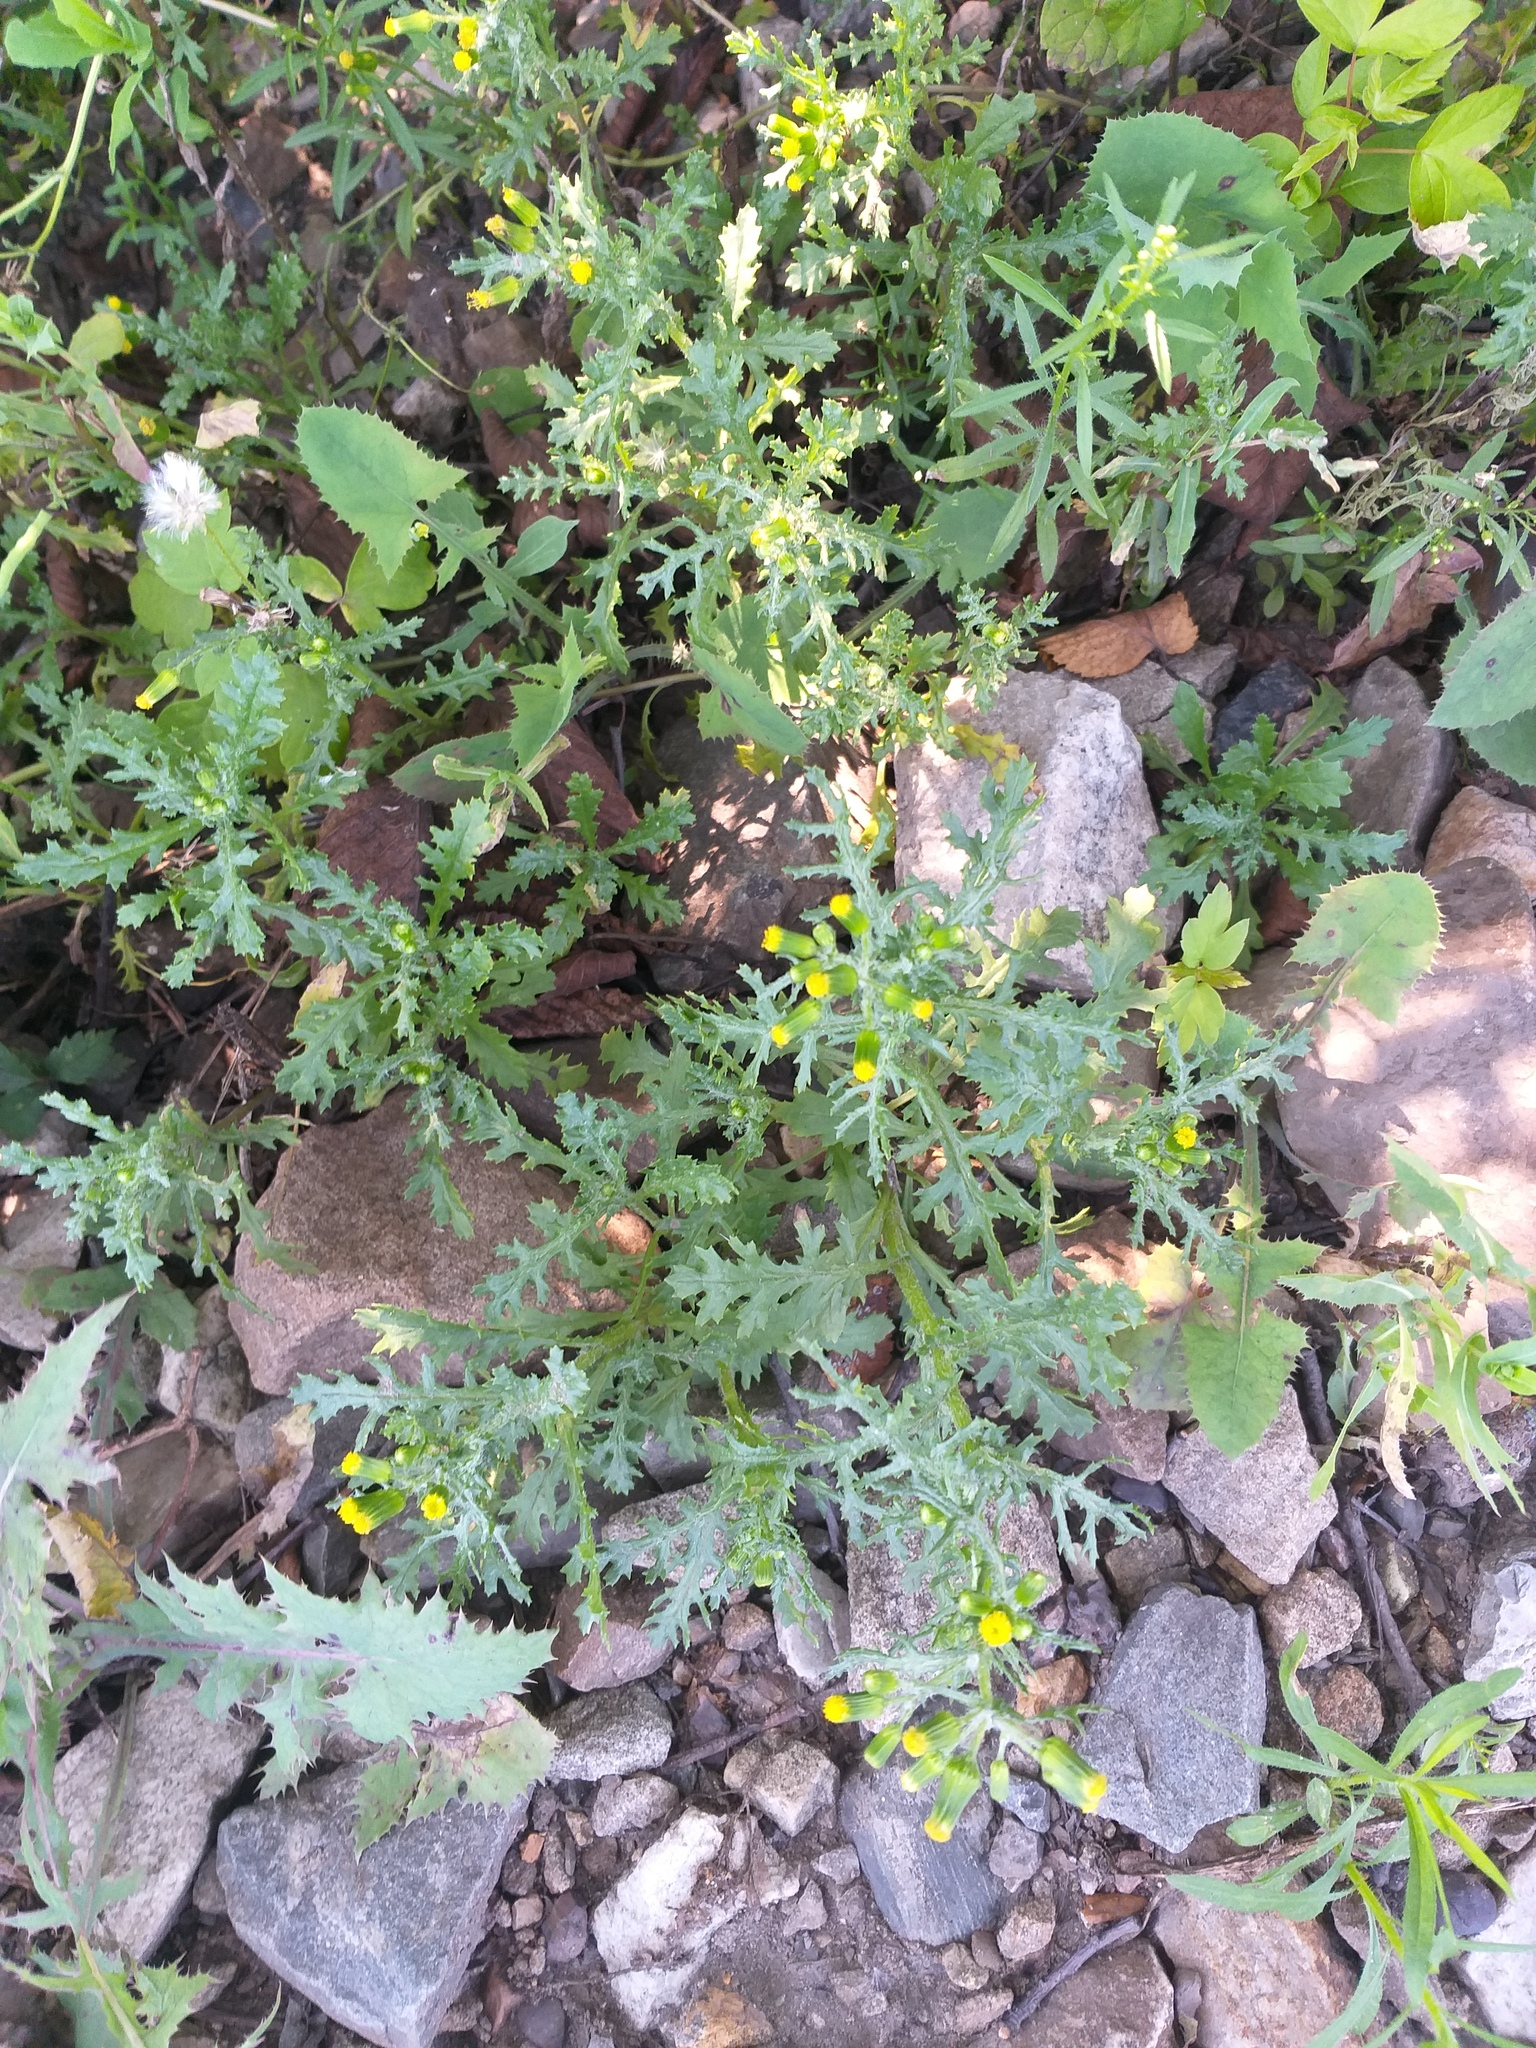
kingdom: Plantae
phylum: Tracheophyta
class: Magnoliopsida
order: Asterales
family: Asteraceae
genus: Senecio
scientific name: Senecio vulgaris
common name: Old-man-in-the-spring
